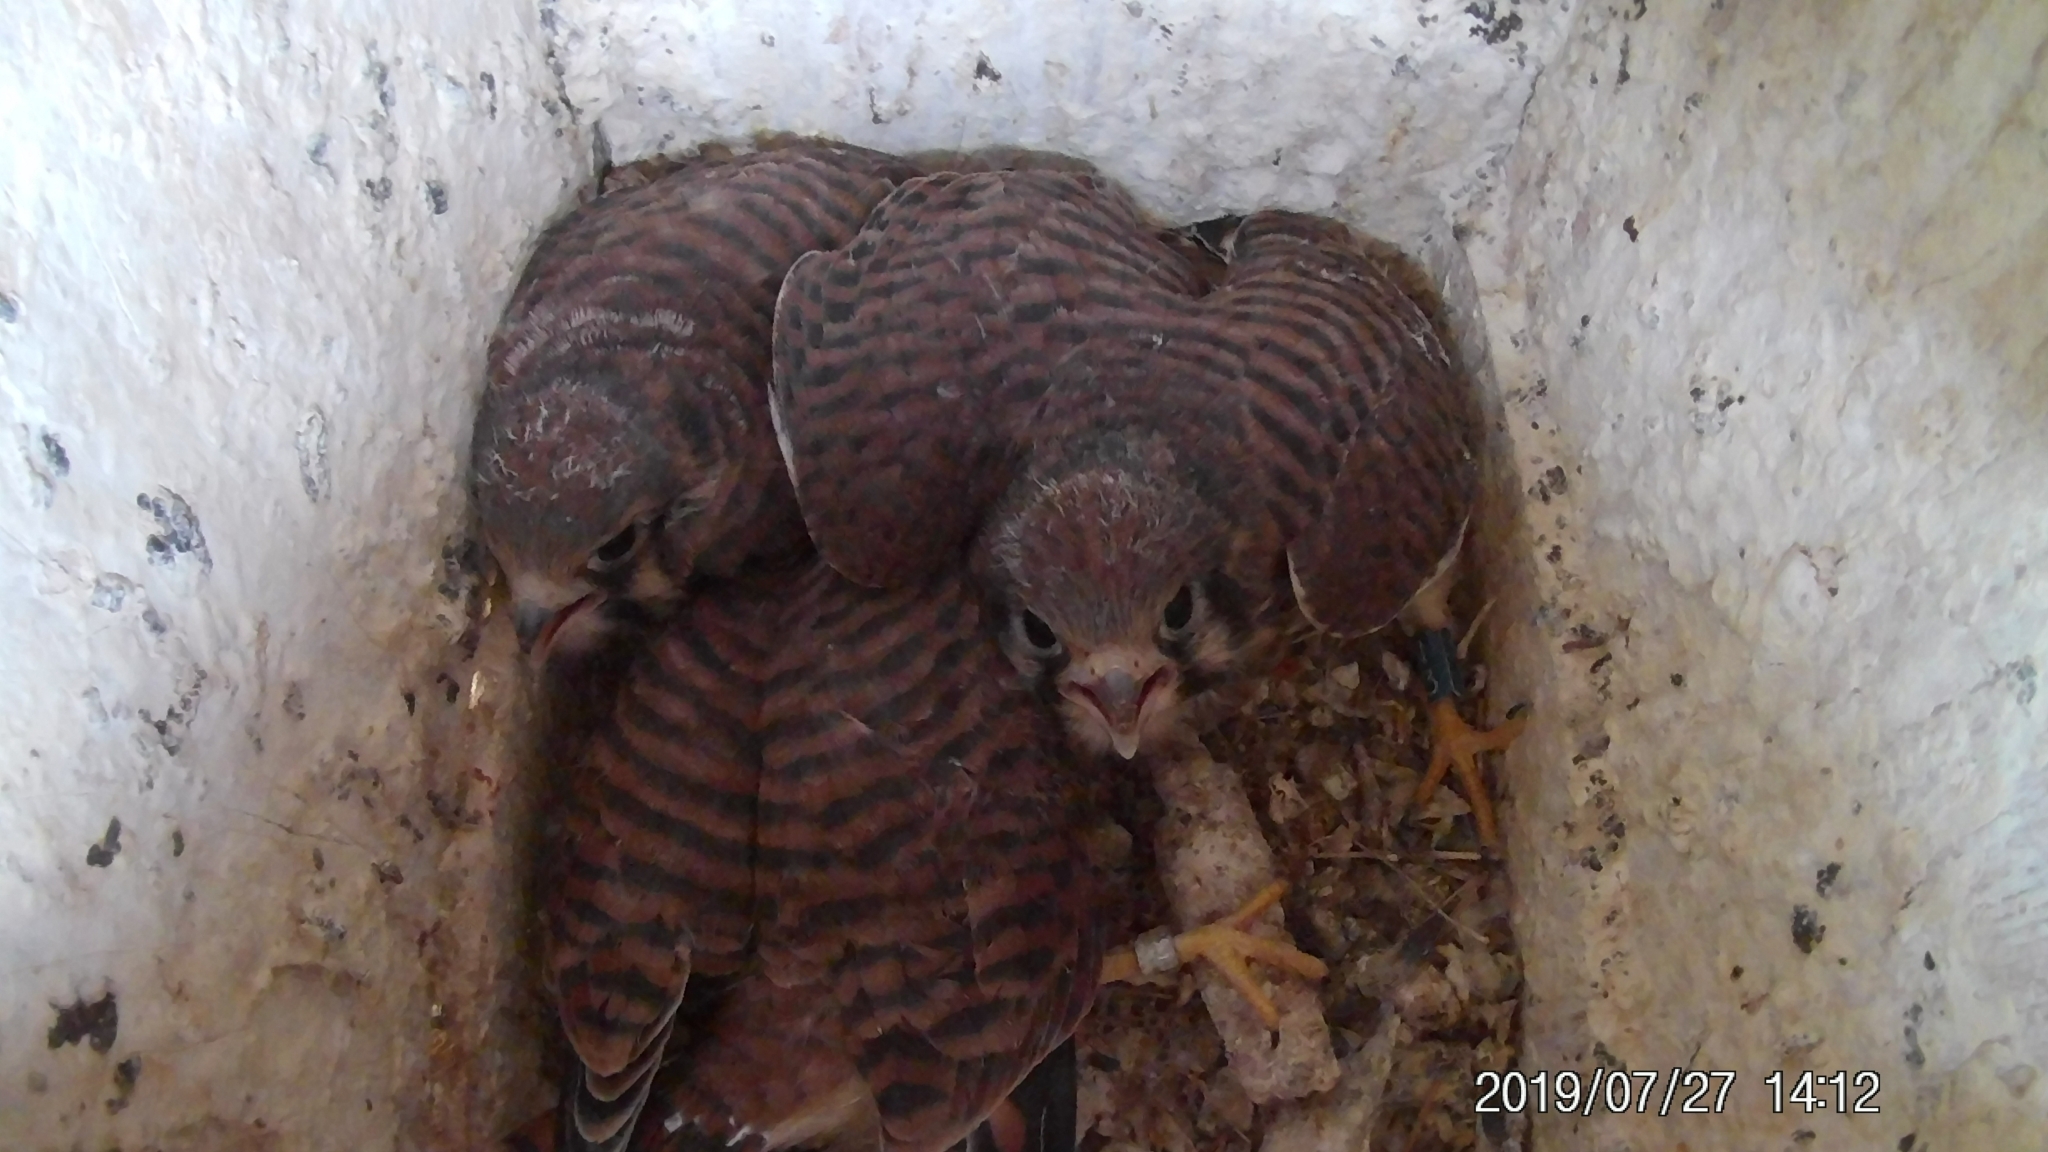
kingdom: Animalia
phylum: Chordata
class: Aves
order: Falconiformes
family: Falconidae
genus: Falco
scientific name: Falco sparverius
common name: American kestrel
